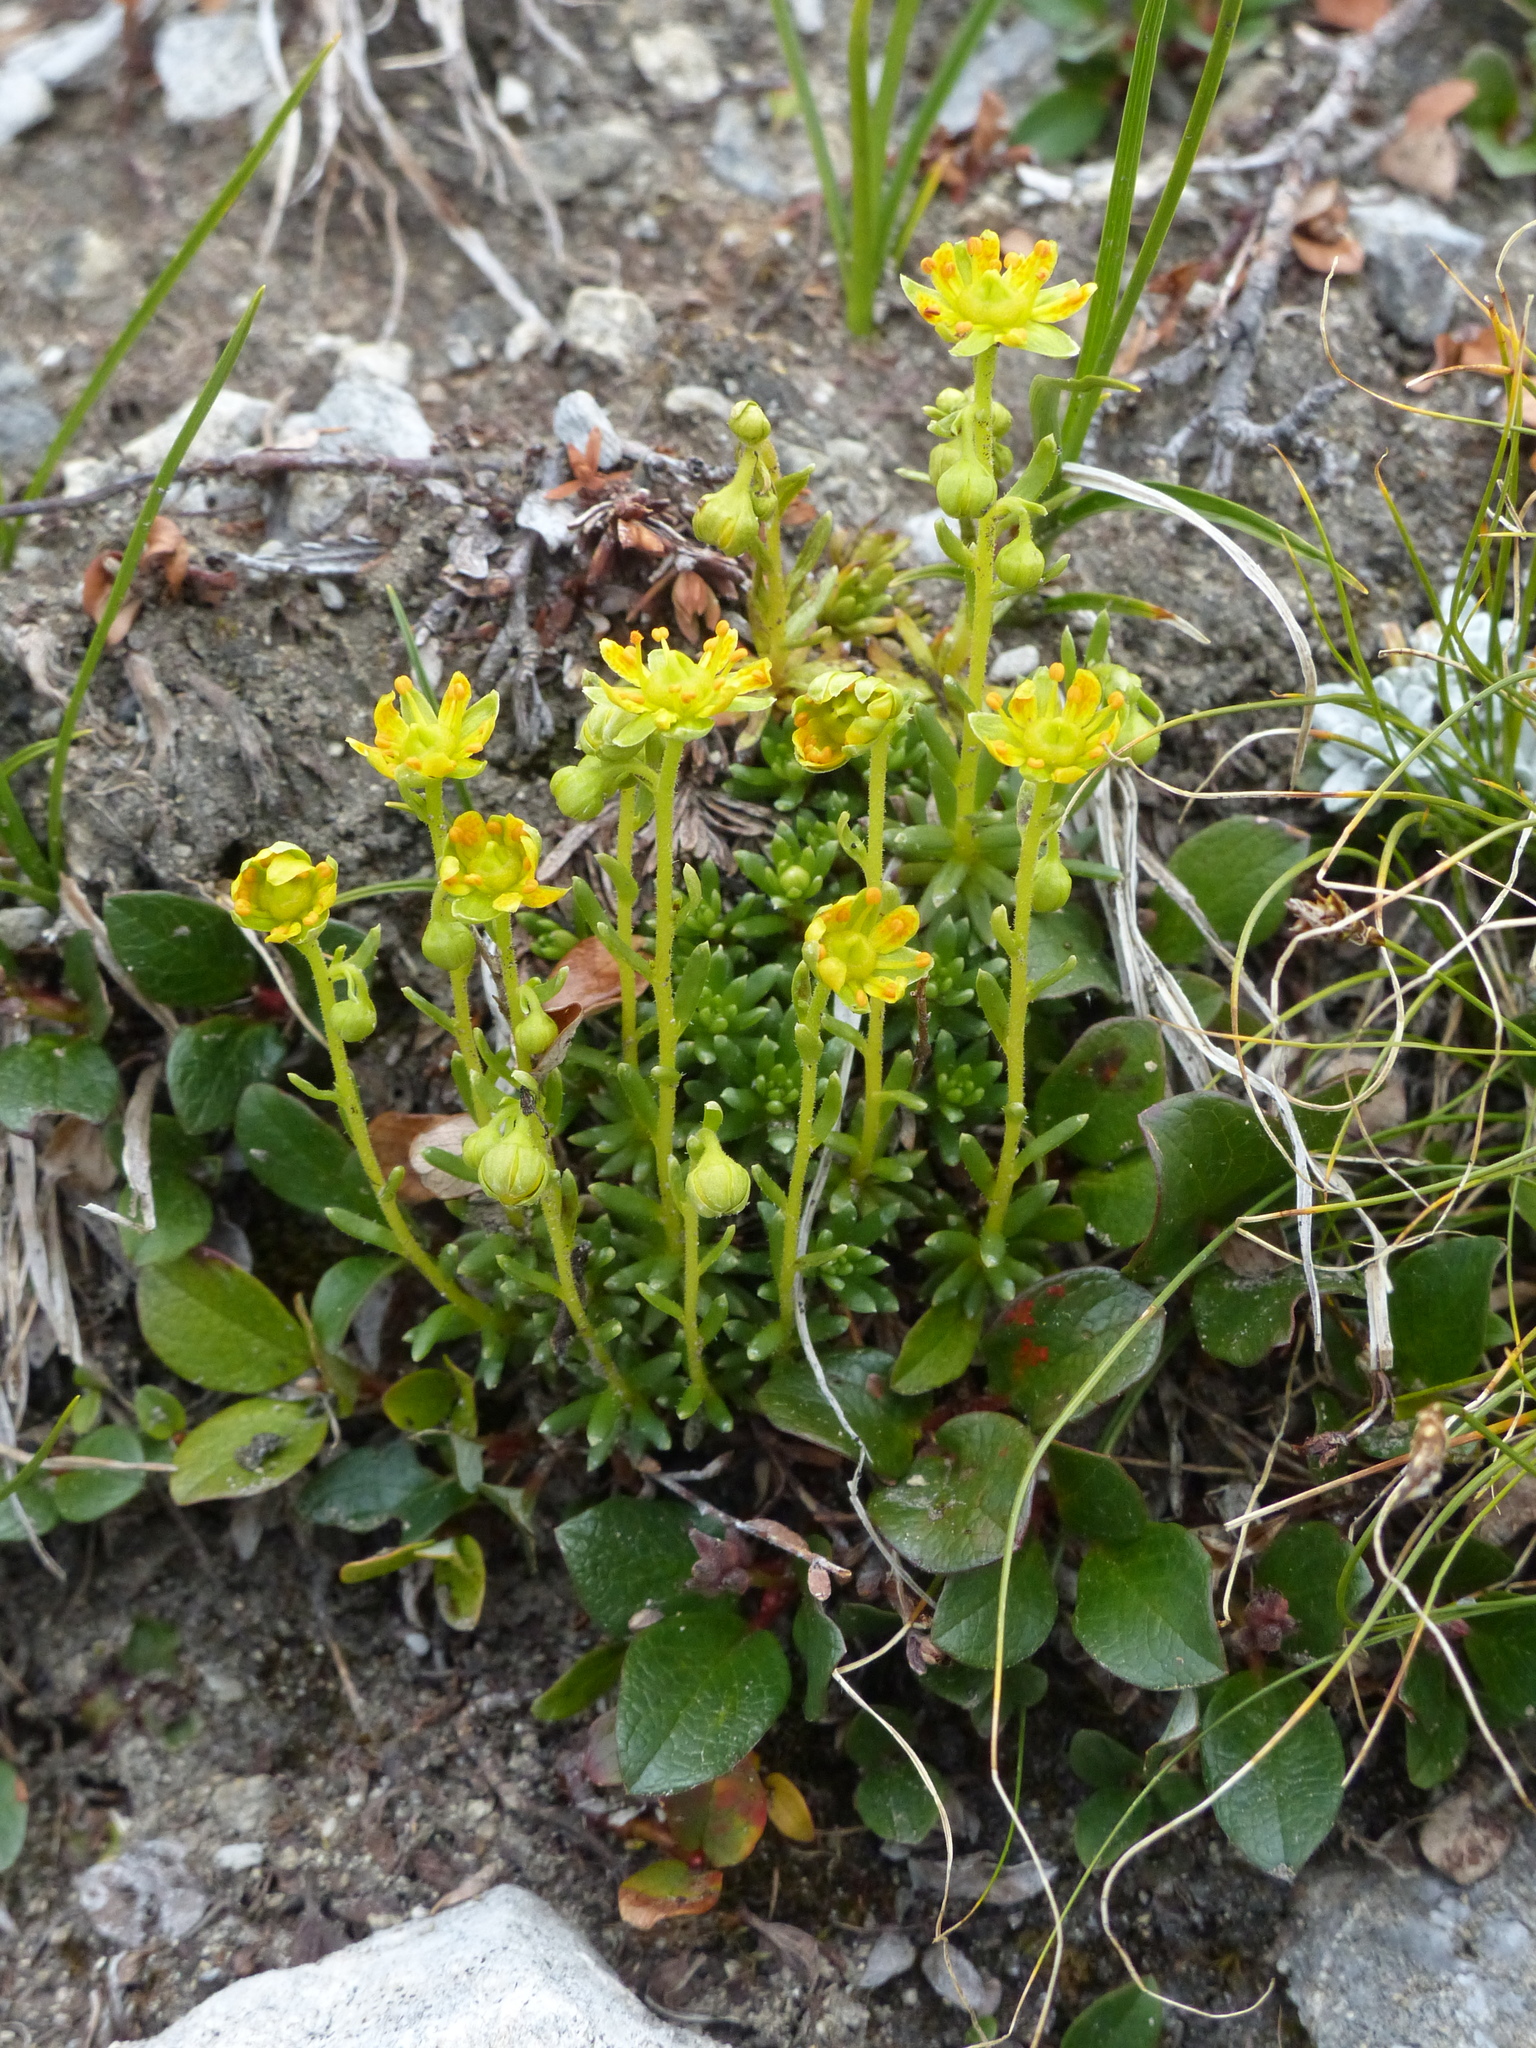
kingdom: Plantae
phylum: Tracheophyta
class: Magnoliopsida
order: Saxifragales
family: Saxifragaceae
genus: Saxifraga
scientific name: Saxifraga aizoides
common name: Yellow mountain saxifrage
